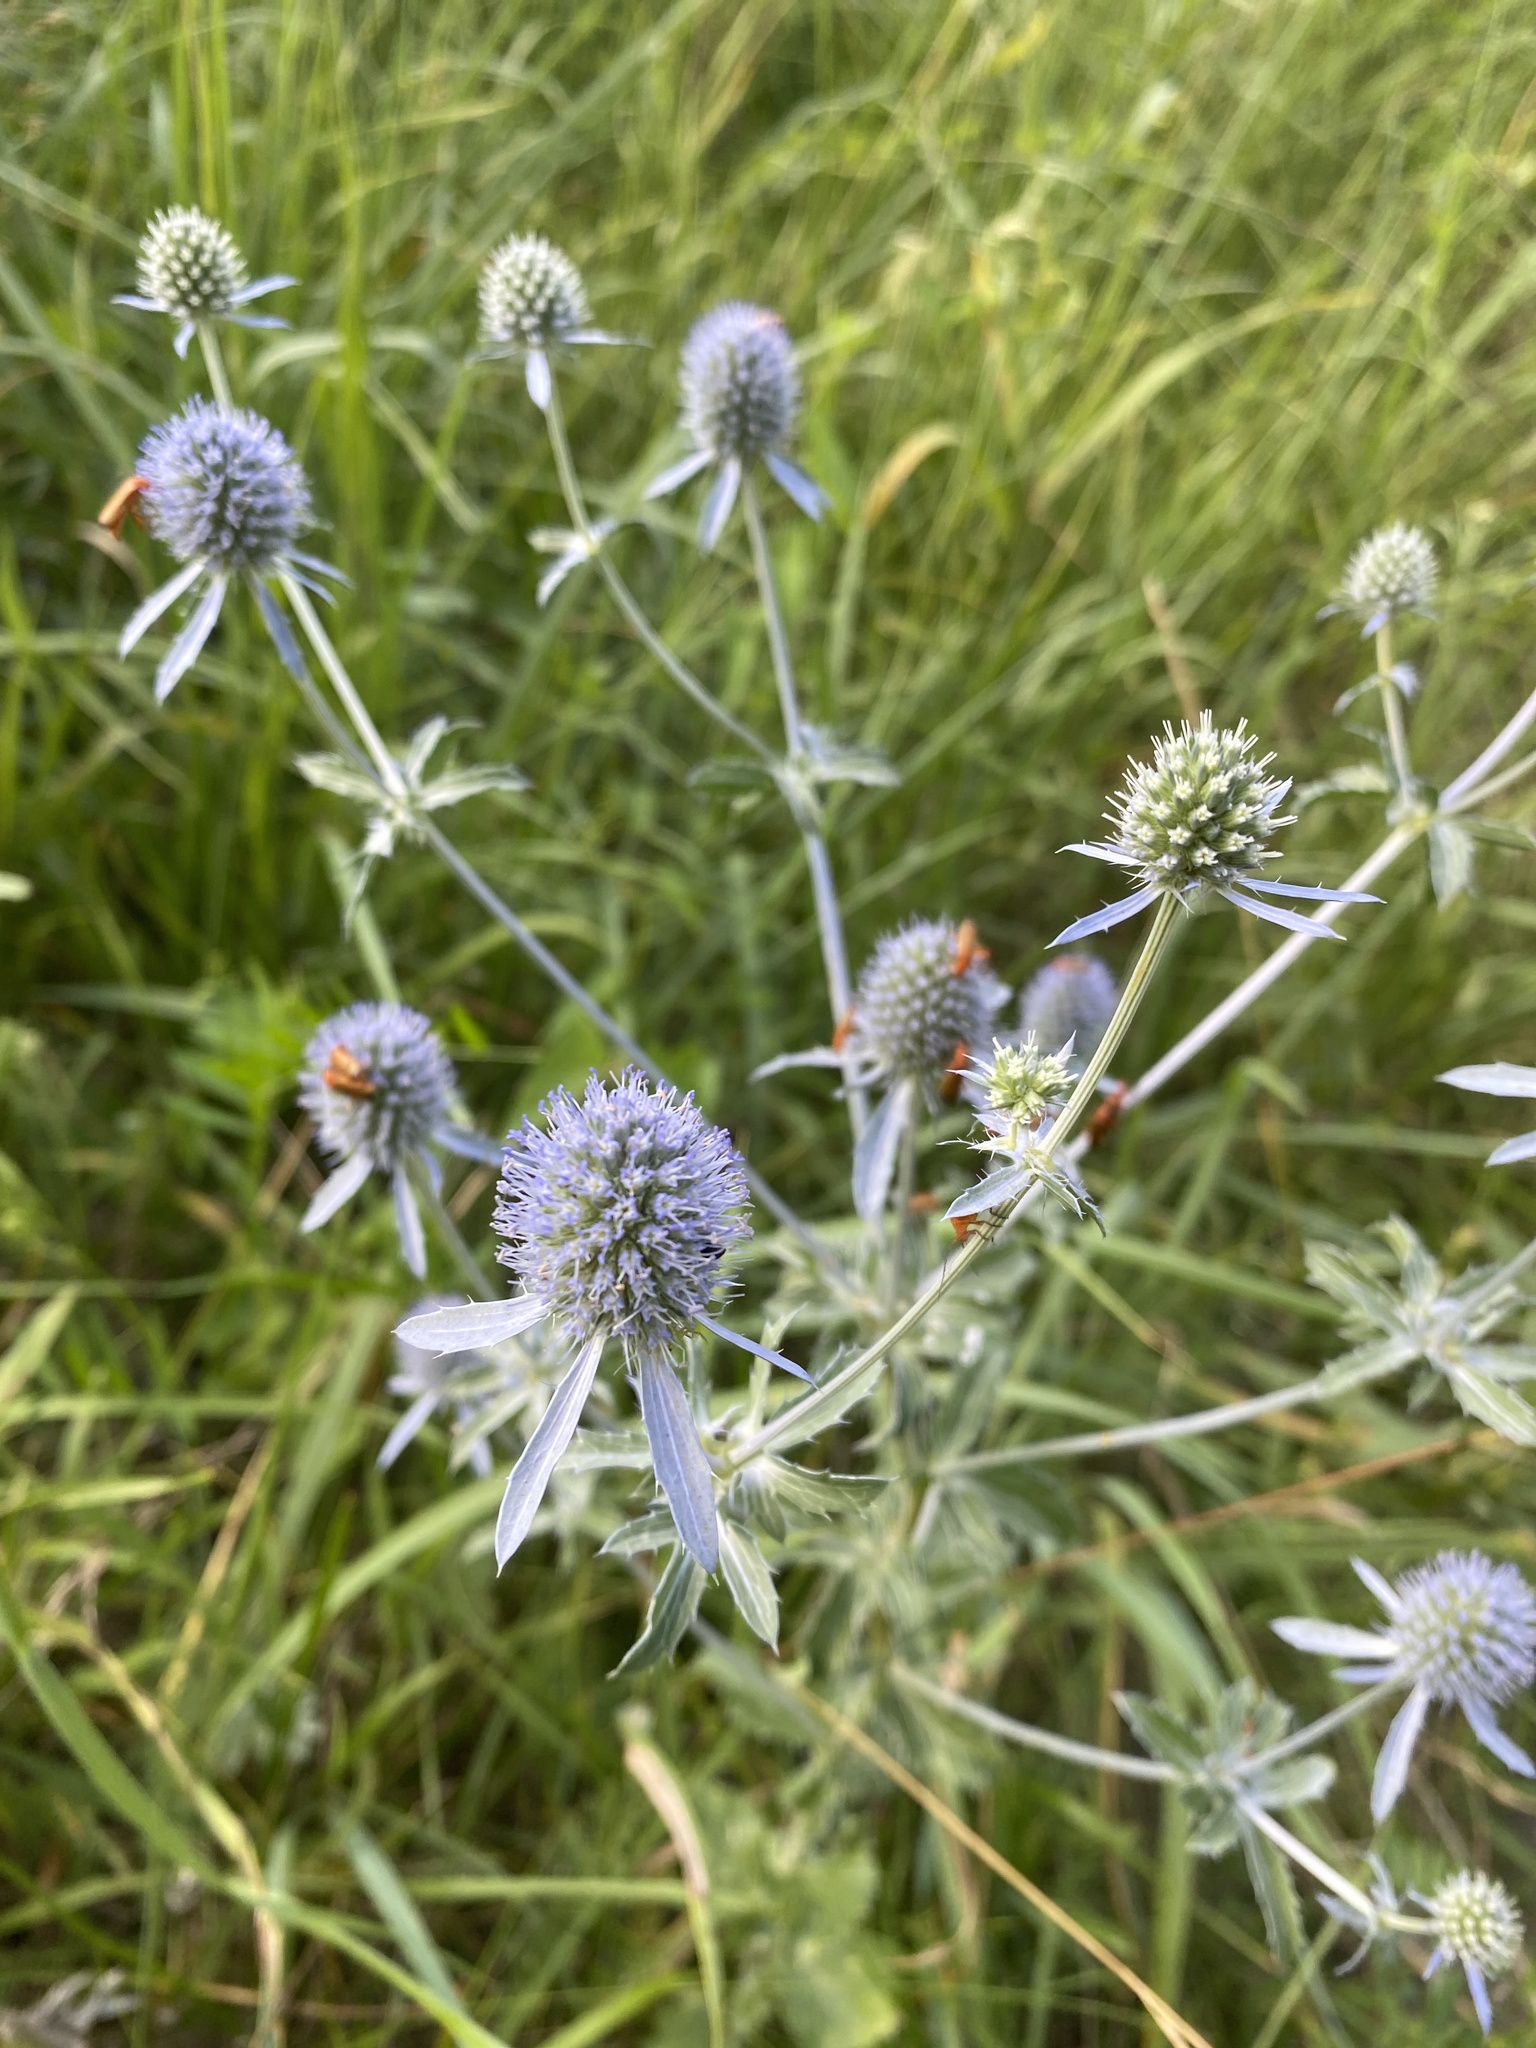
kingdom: Plantae
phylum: Tracheophyta
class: Magnoliopsida
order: Apiales
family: Apiaceae
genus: Eryngium
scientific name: Eryngium planum
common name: Blue eryngo
